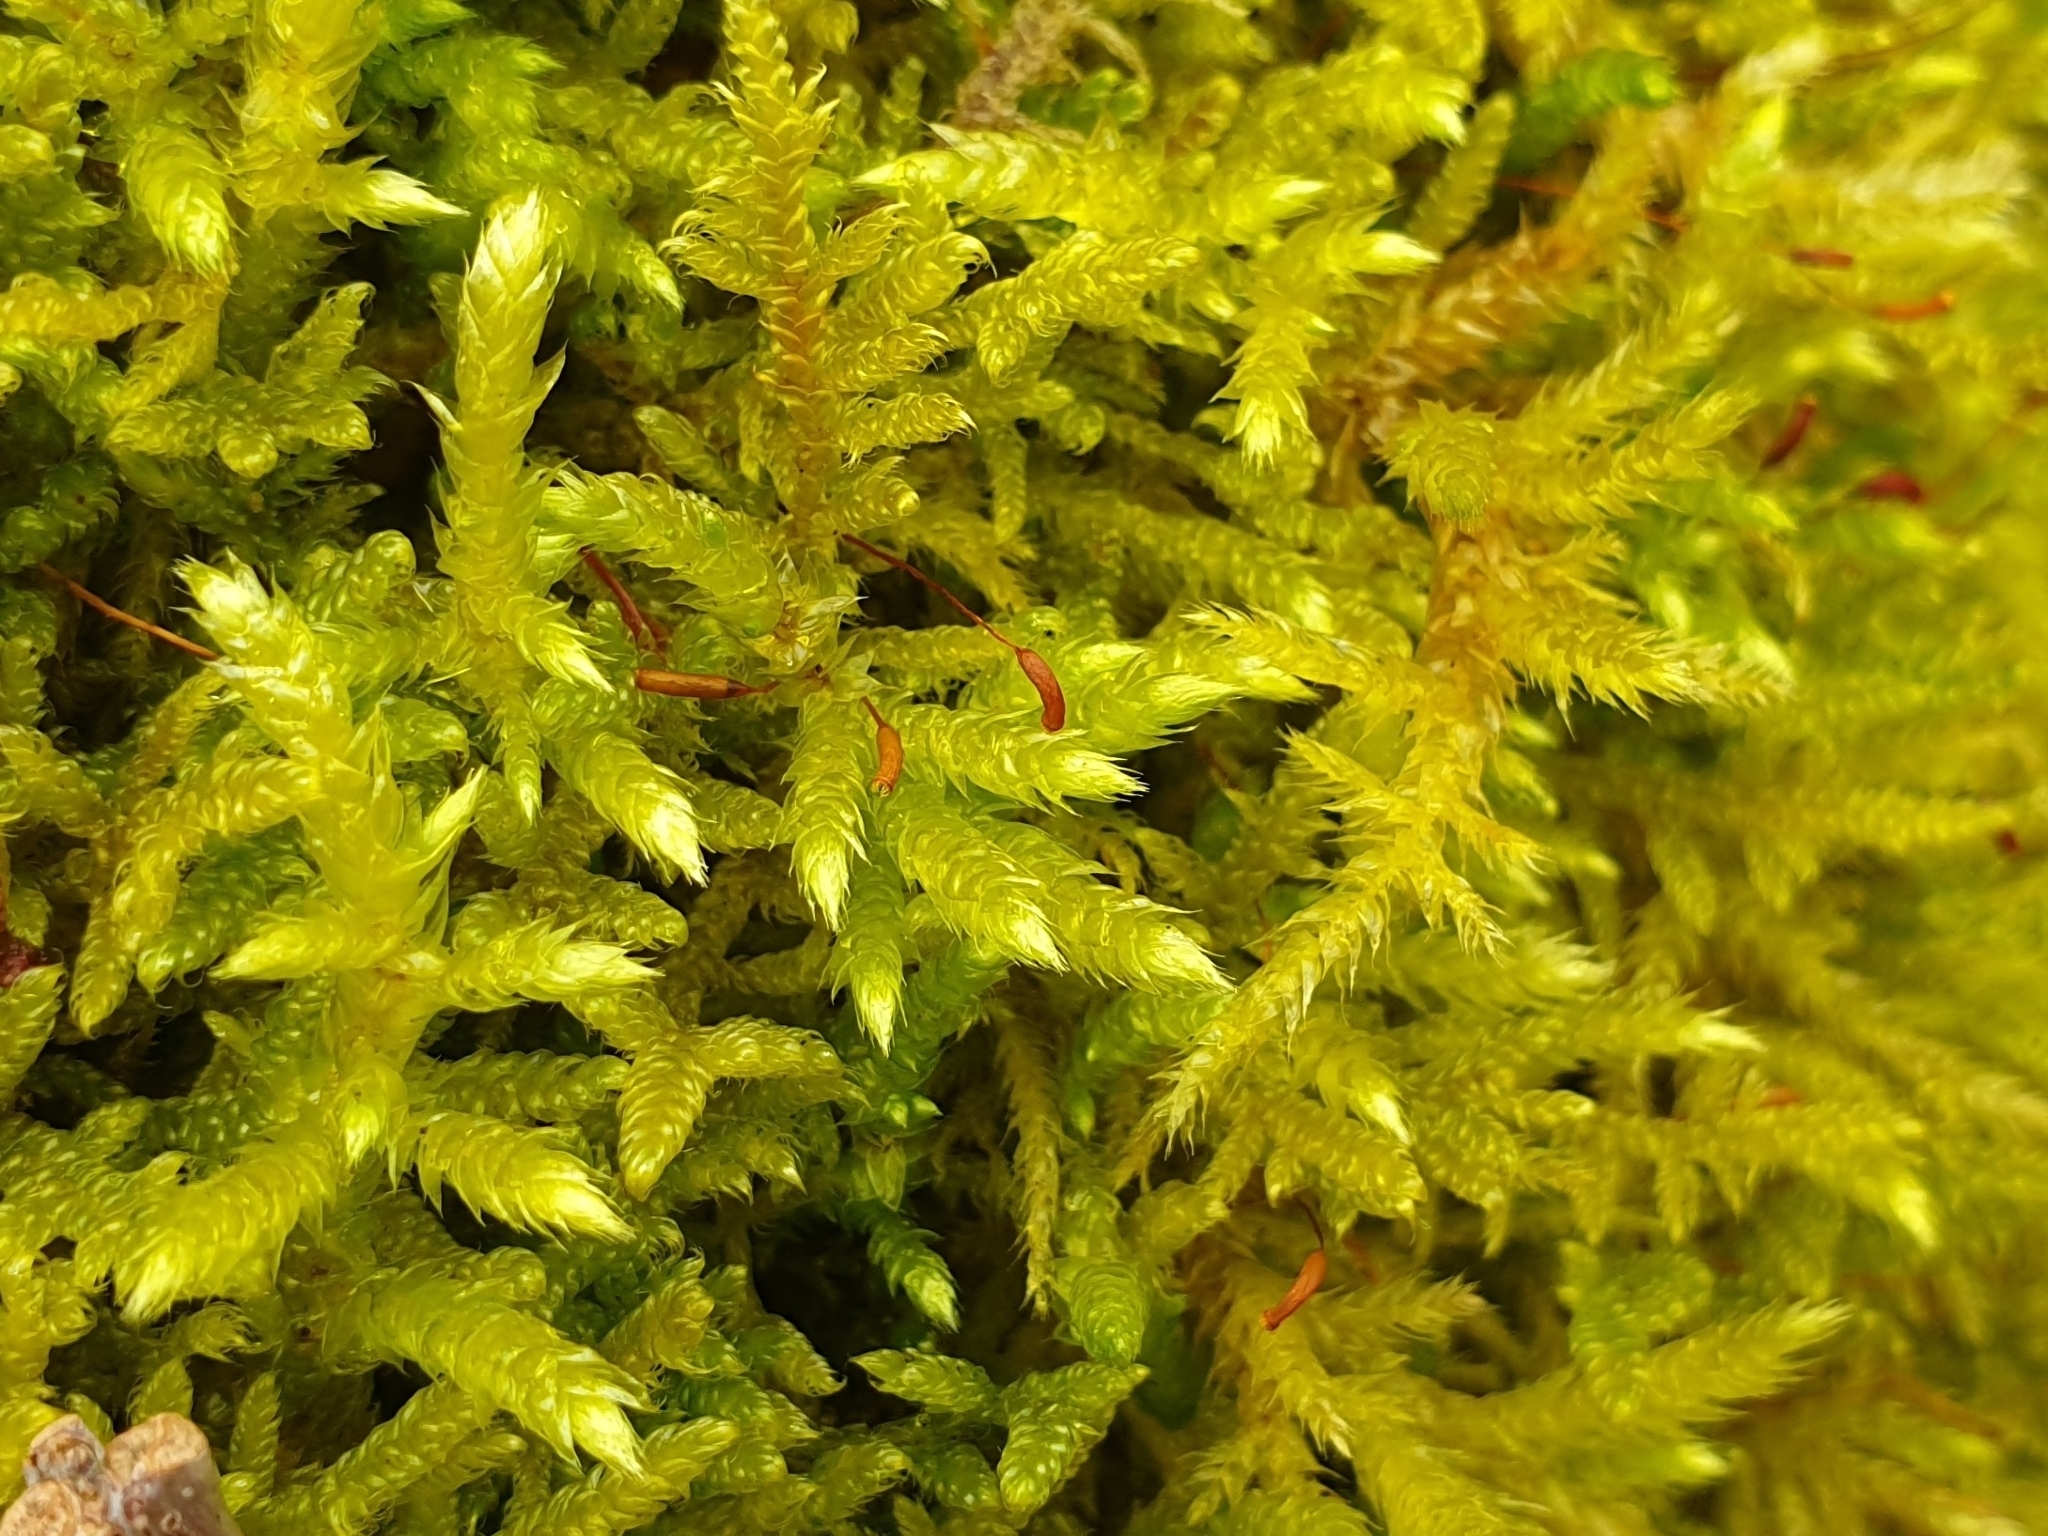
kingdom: Plantae
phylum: Bryophyta
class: Bryopsida
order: Hypnales
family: Brachytheciaceae
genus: Brachythecium
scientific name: Brachythecium rutabulum
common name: Rough-stalked feather-moss
